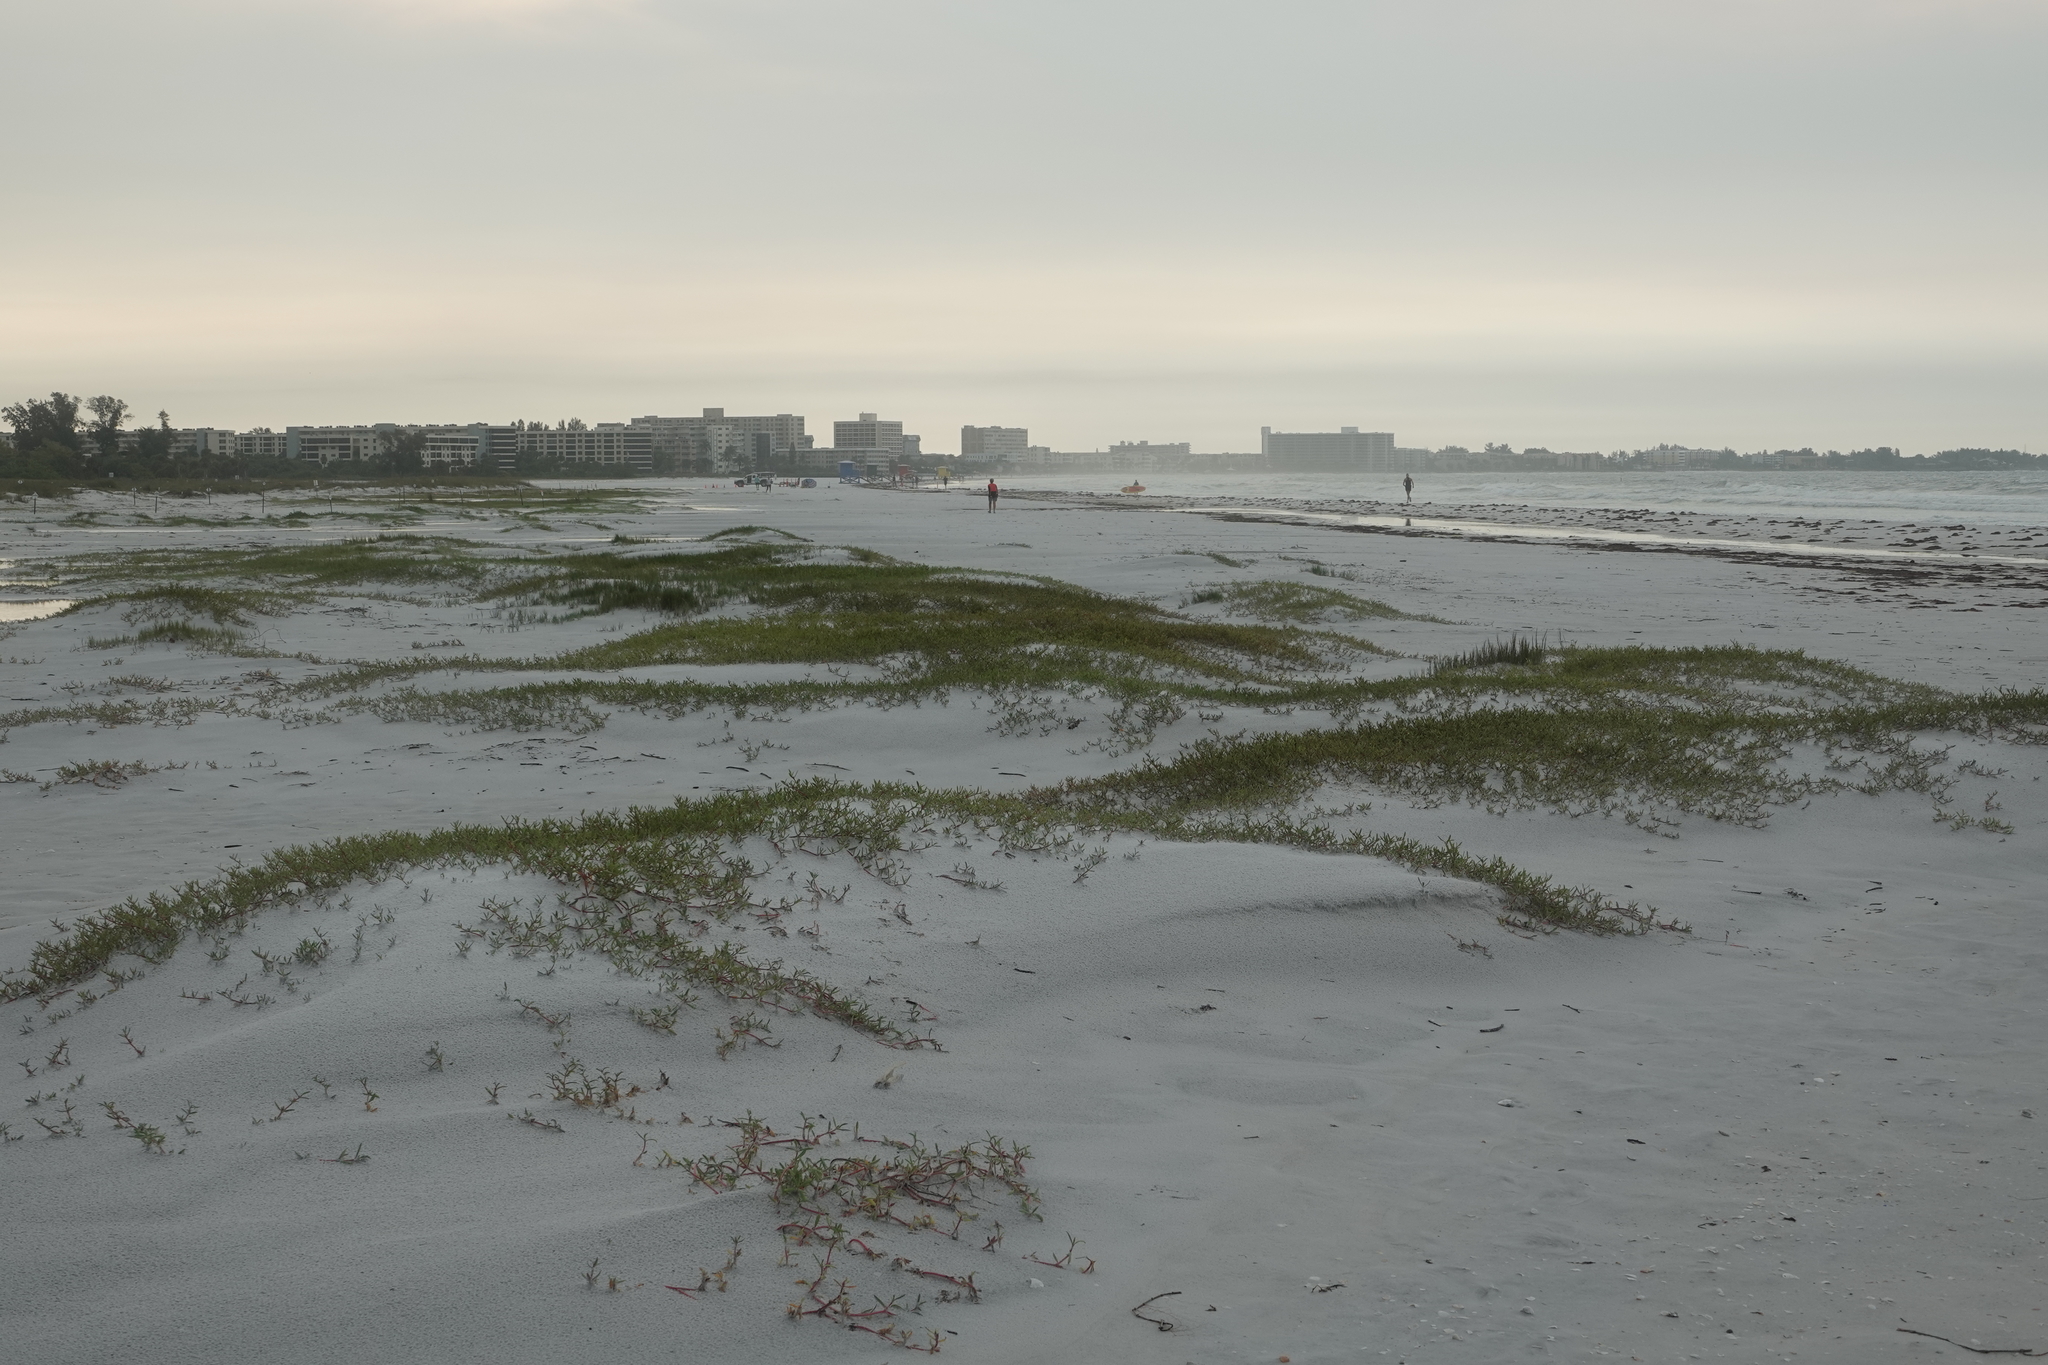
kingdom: Plantae
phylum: Tracheophyta
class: Magnoliopsida
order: Caryophyllales
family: Aizoaceae
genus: Sesuvium
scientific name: Sesuvium portulacastrum
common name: Sea-purslane
